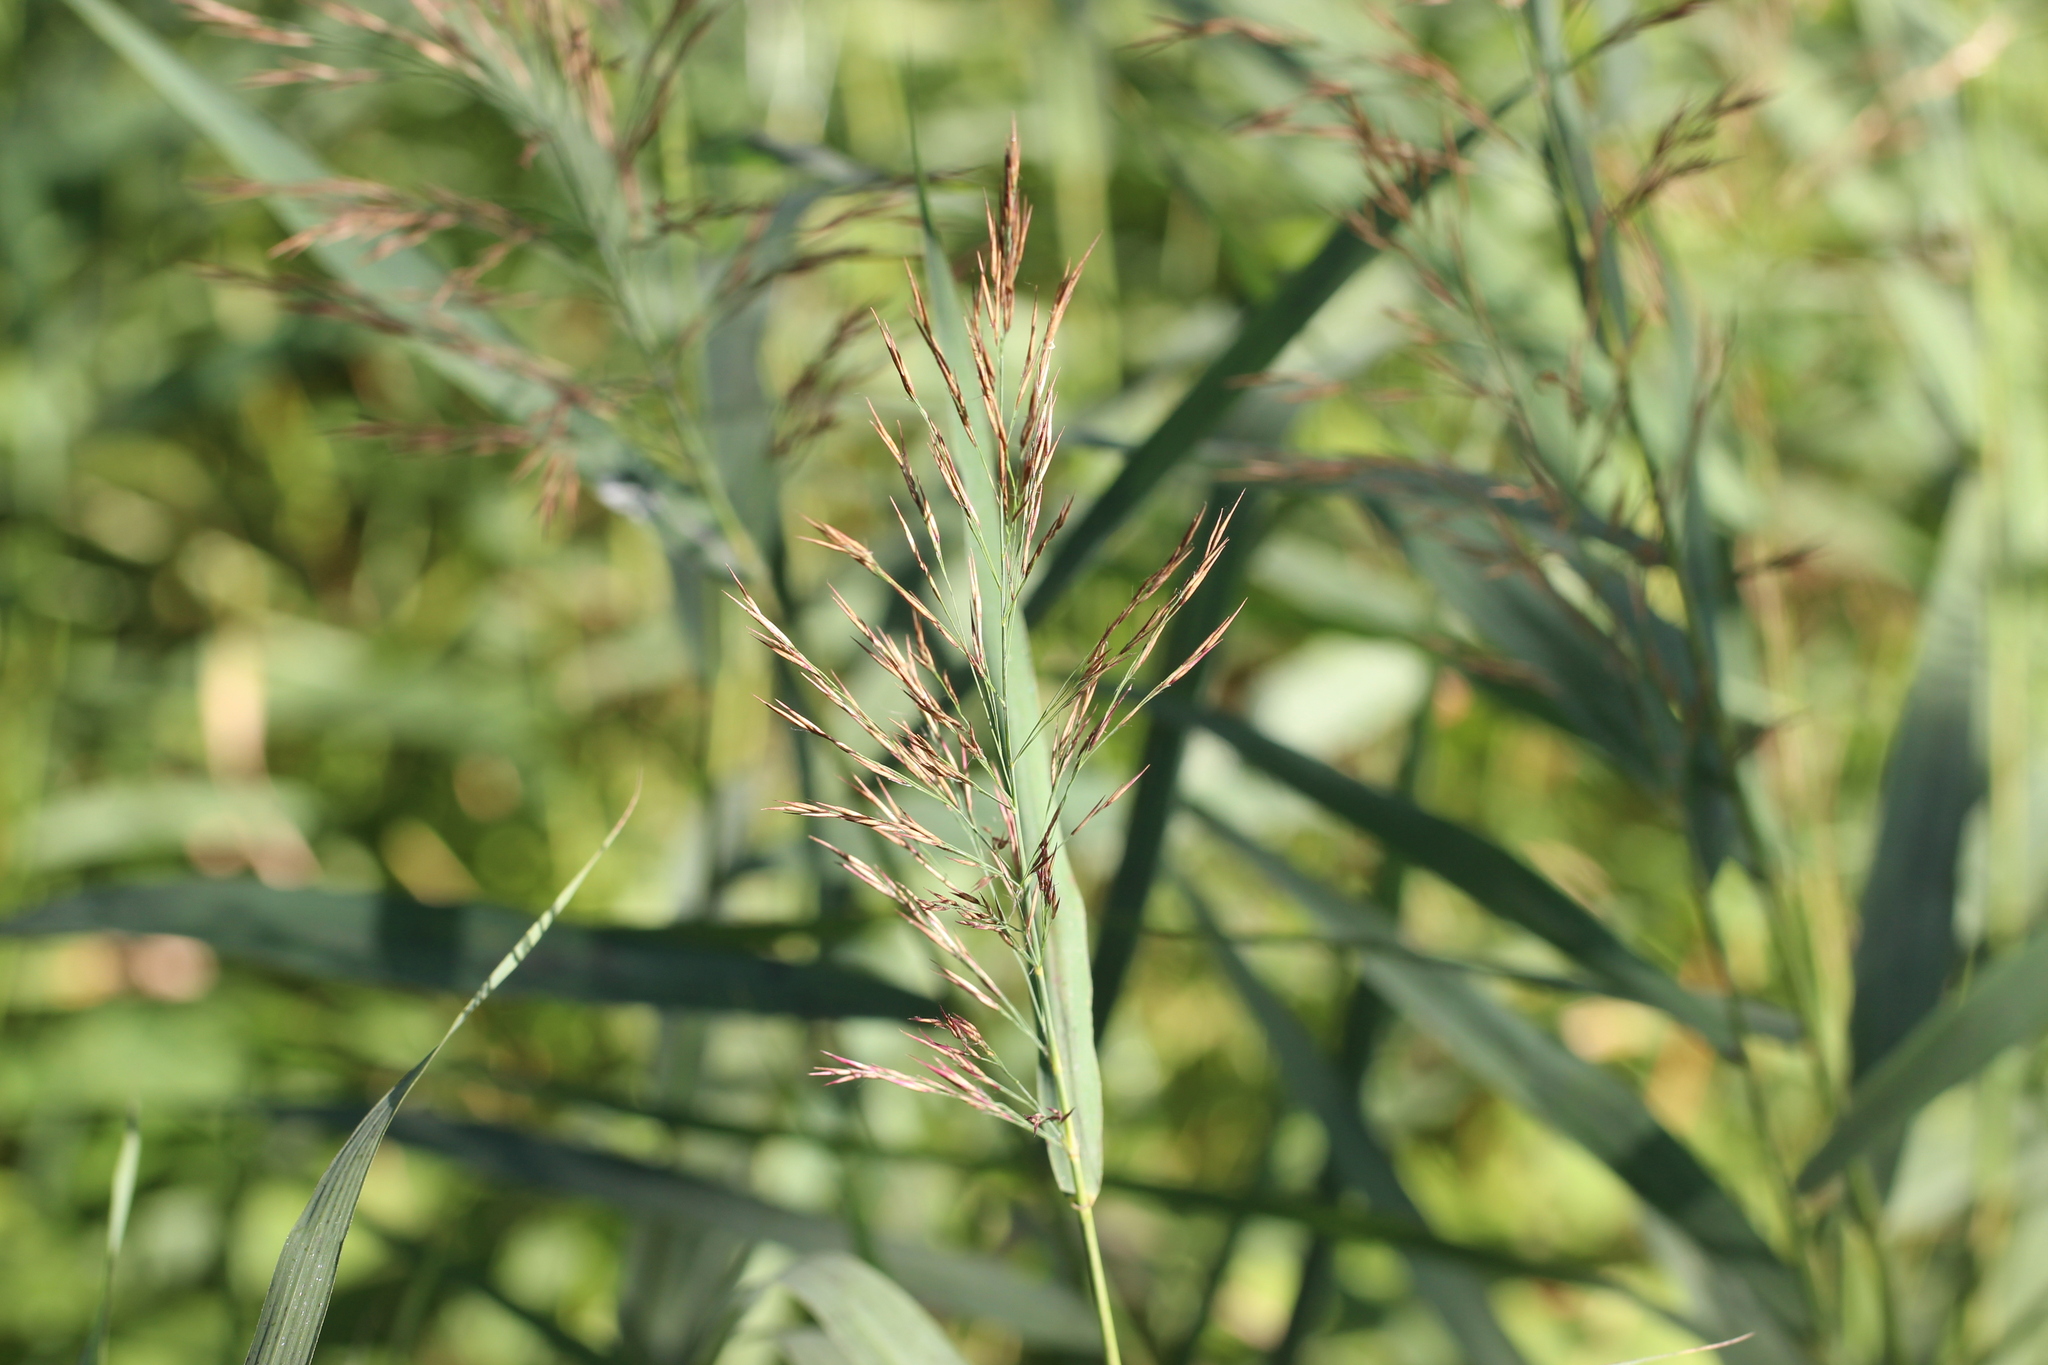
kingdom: Plantae
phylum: Tracheophyta
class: Liliopsida
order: Poales
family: Poaceae
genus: Phragmites
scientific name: Phragmites australis
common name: Common reed
